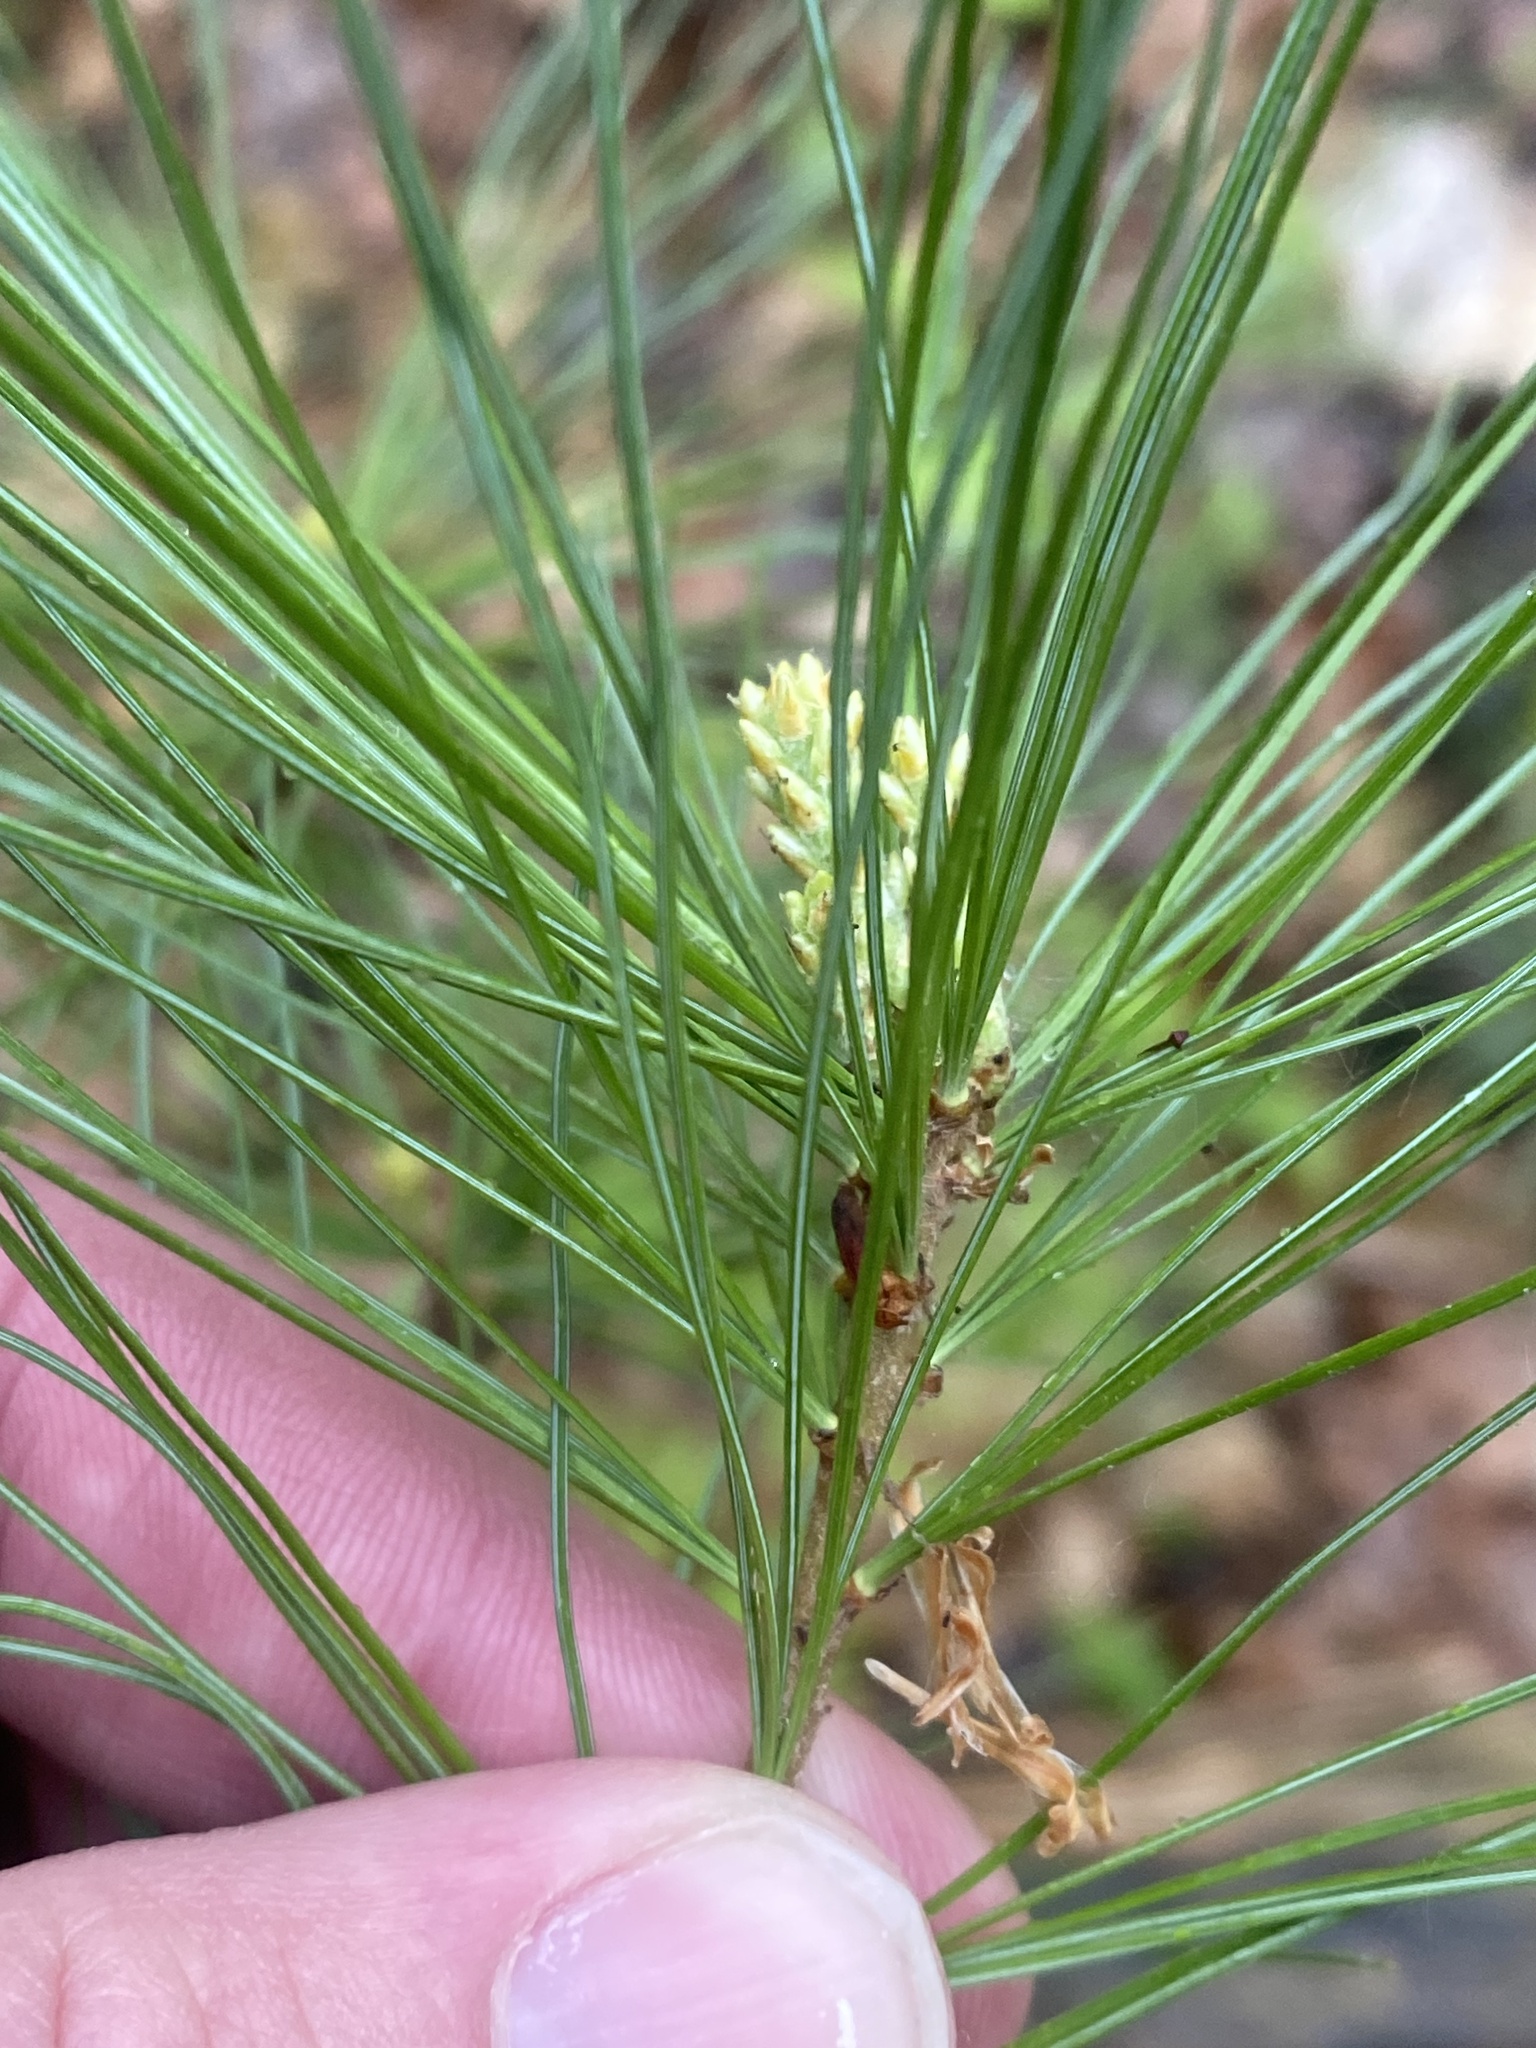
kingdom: Plantae
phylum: Tracheophyta
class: Pinopsida
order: Pinales
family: Pinaceae
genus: Pinus
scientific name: Pinus strobus
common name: Weymouth pine
